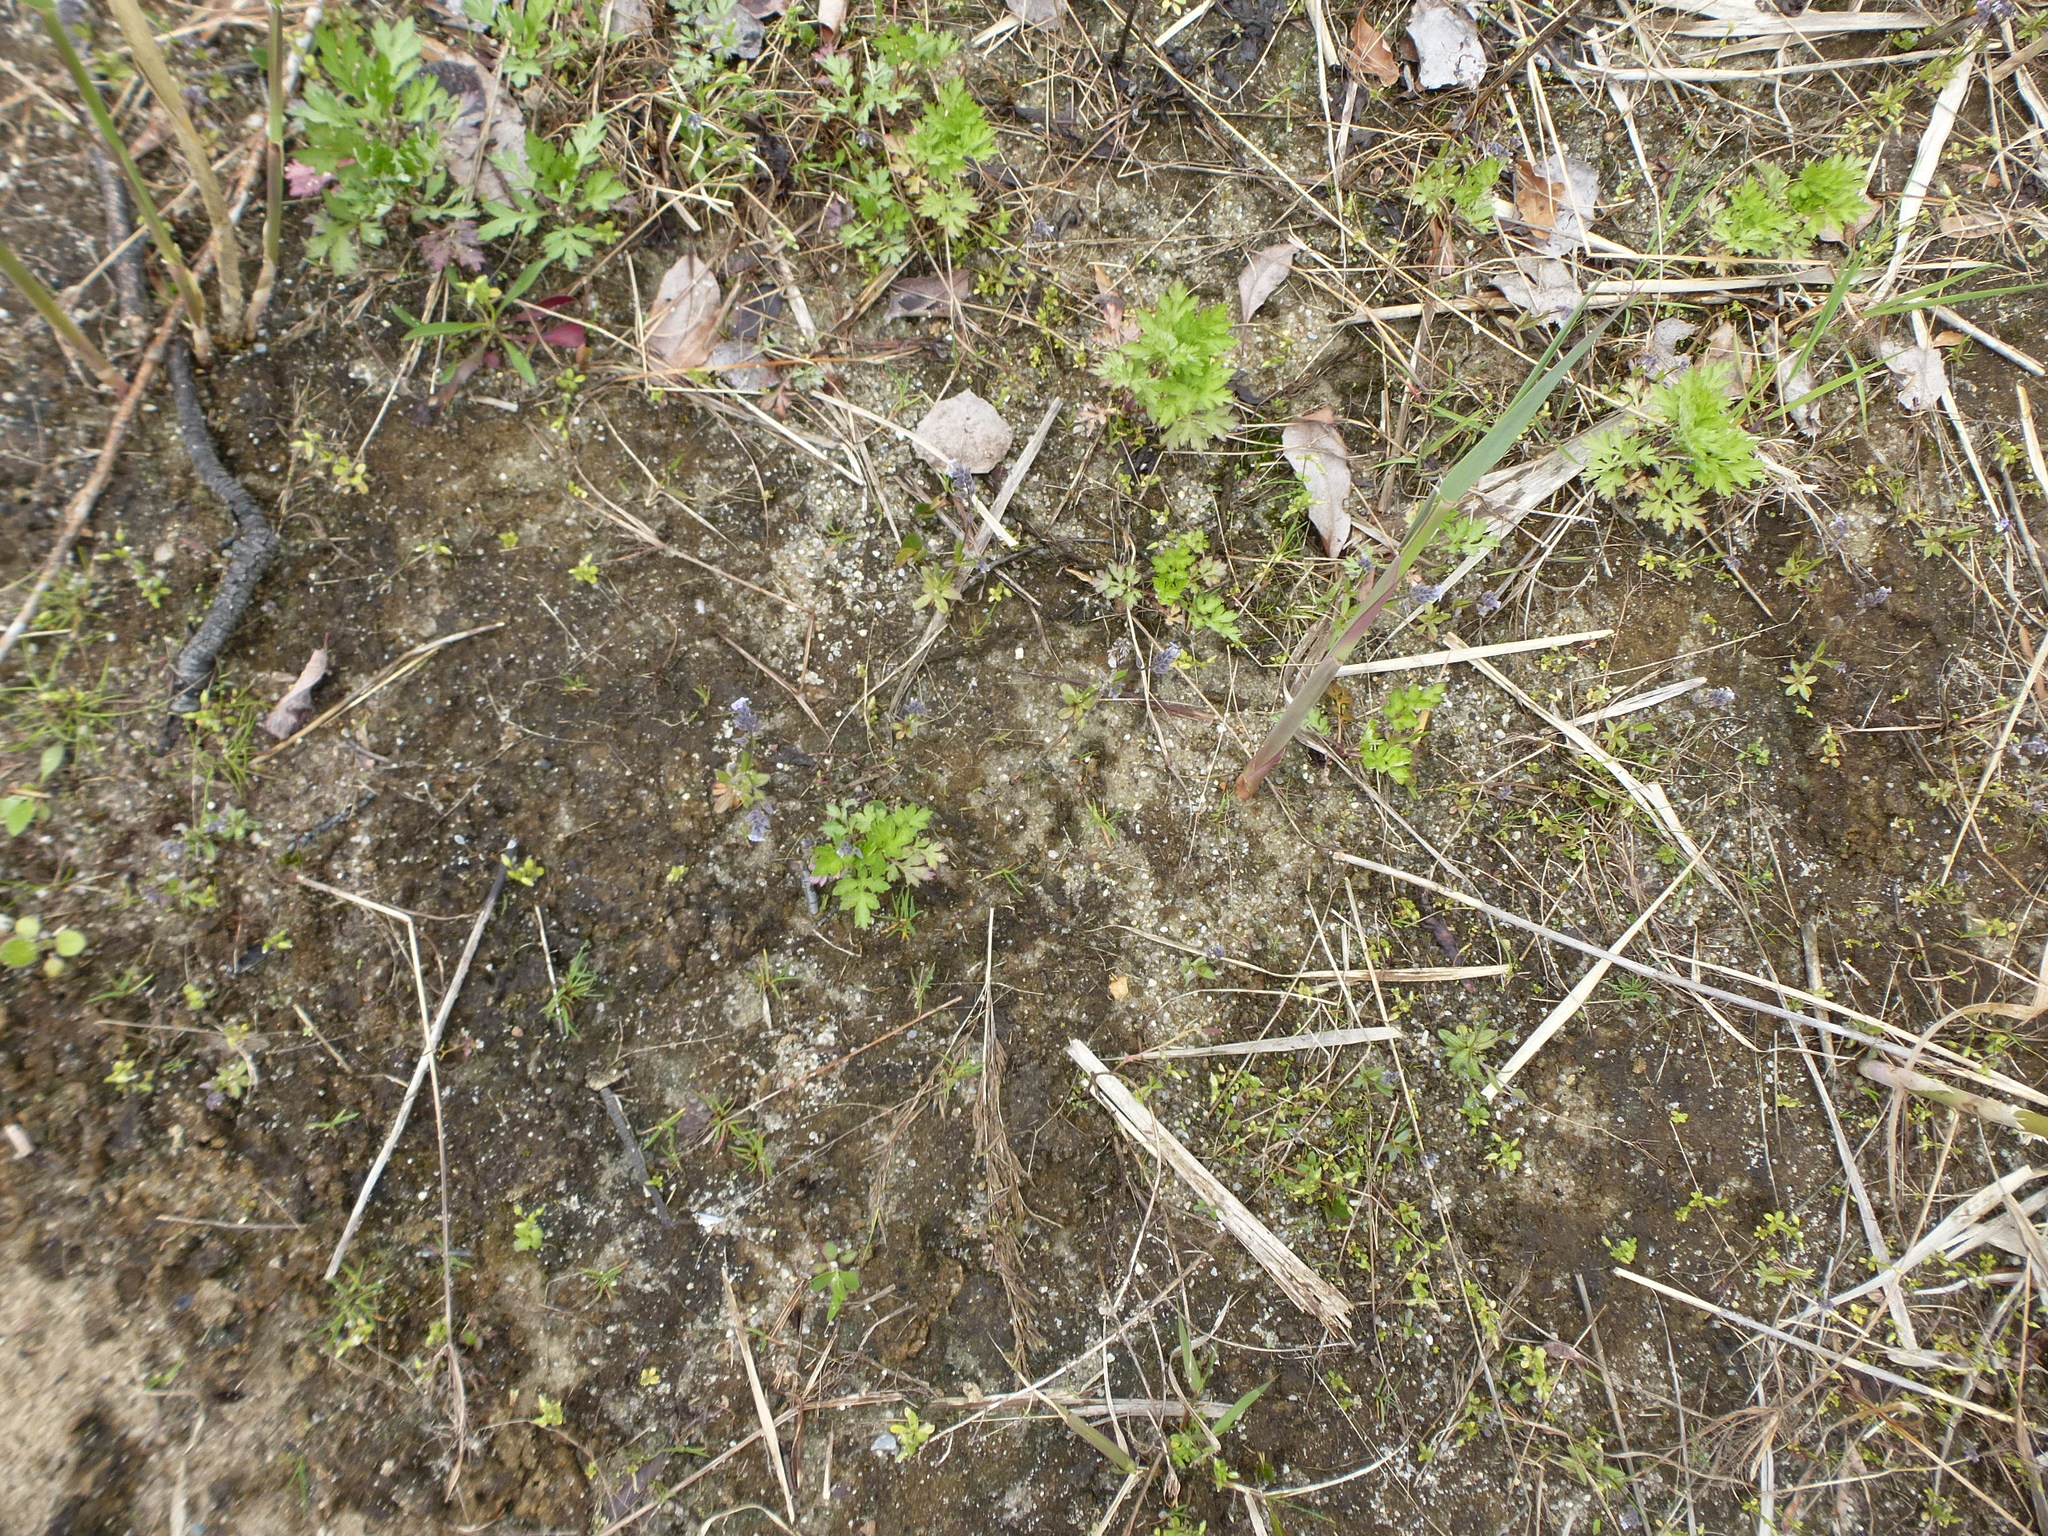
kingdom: Plantae
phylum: Tracheophyta
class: Magnoliopsida
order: Asterales
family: Asteraceae
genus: Artemisia
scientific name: Artemisia vulgaris
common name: Mugwort
